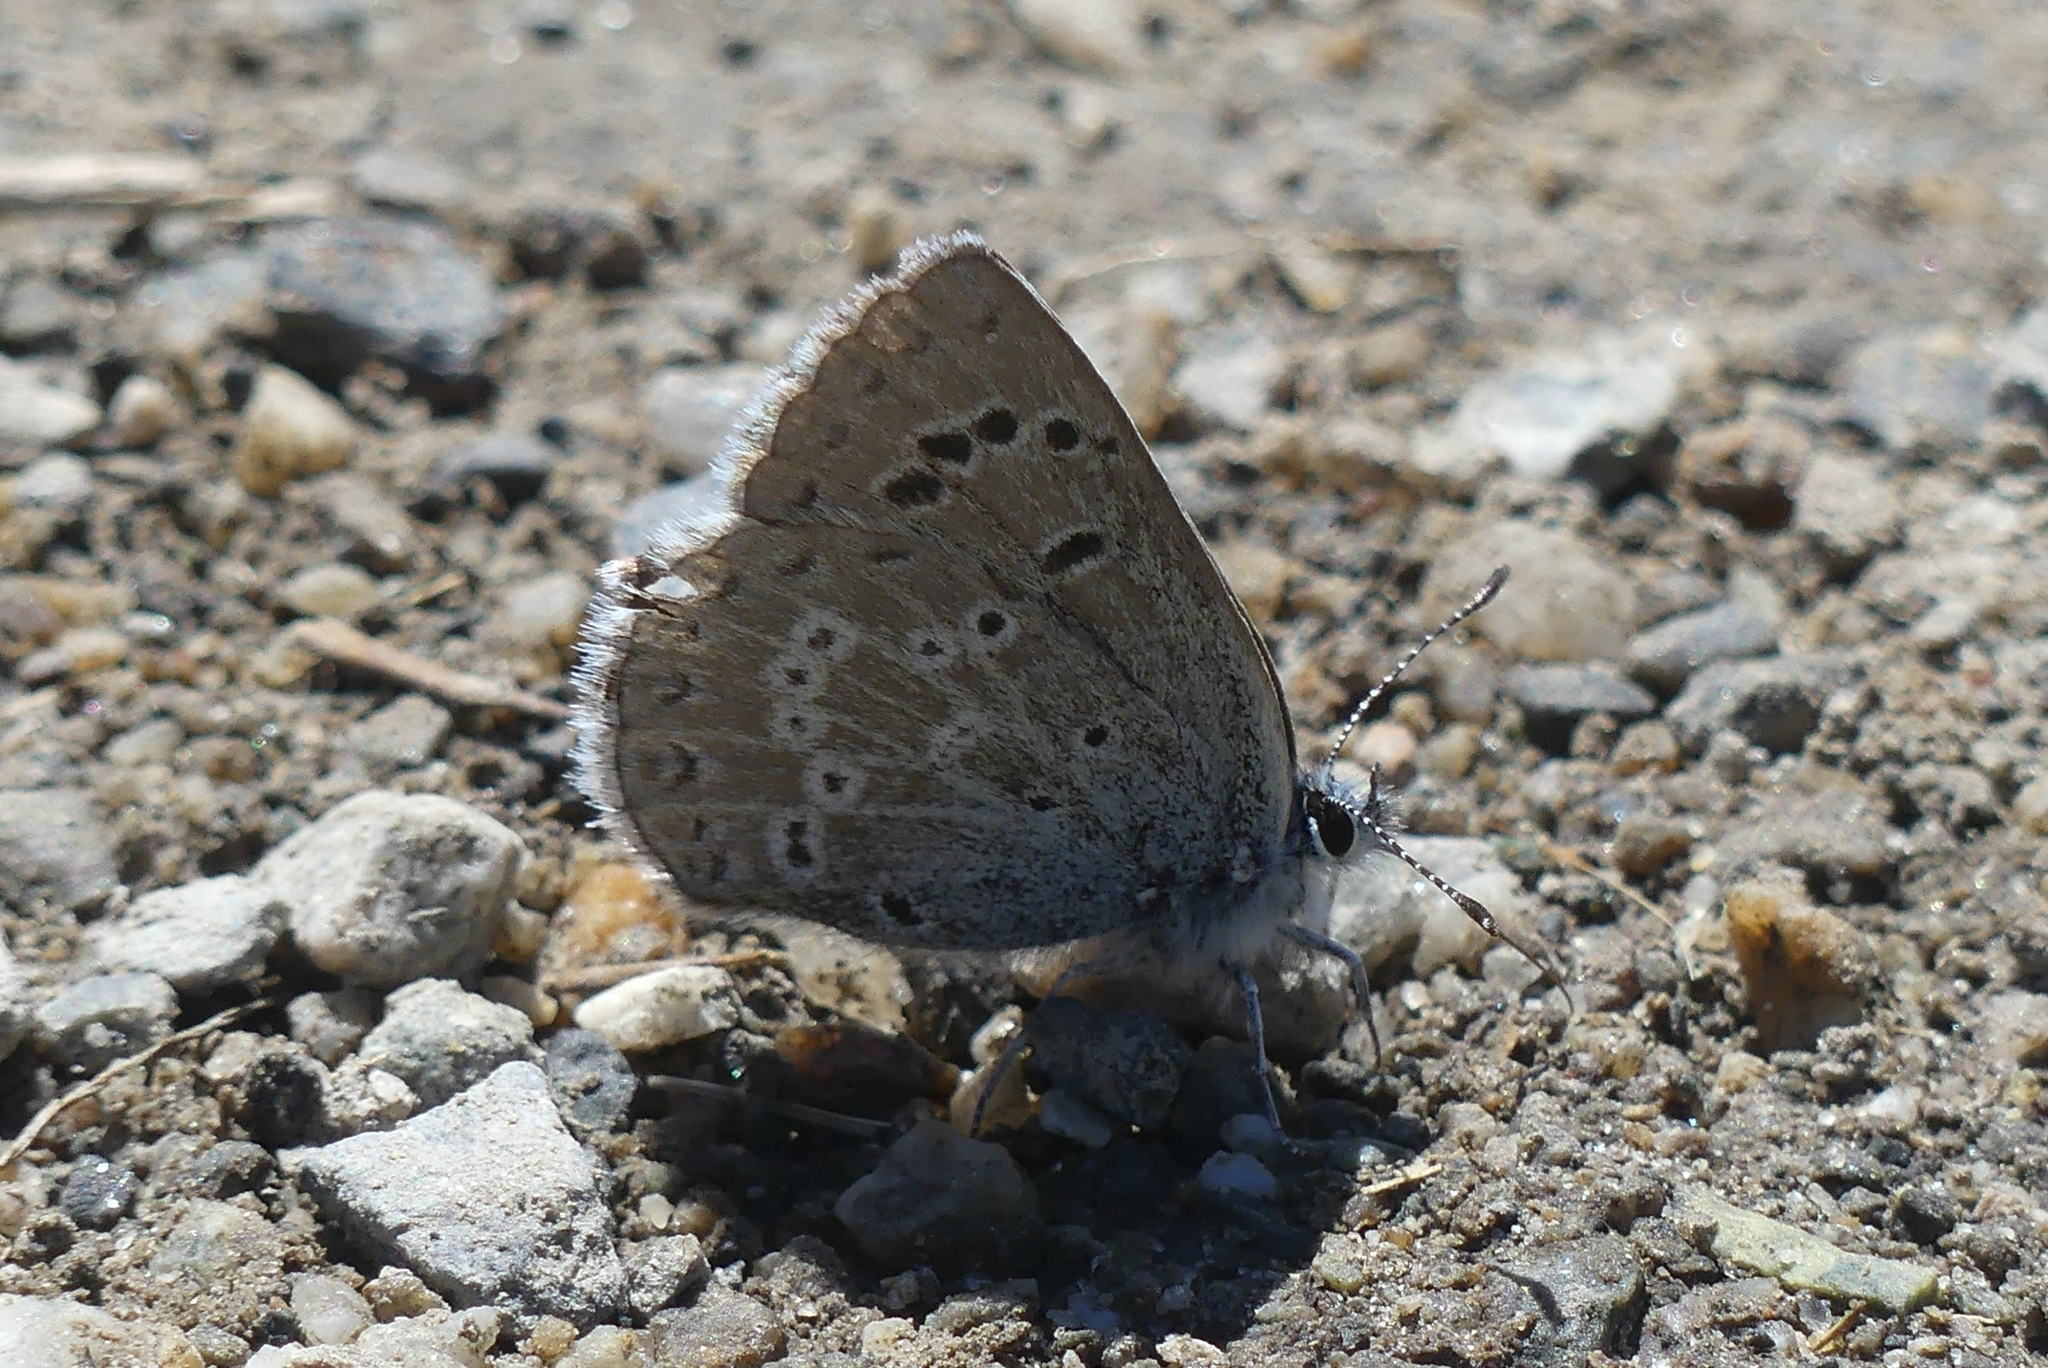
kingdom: Animalia
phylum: Arthropoda
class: Insecta
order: Lepidoptera
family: Lycaenidae
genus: Icaricia
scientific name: Icaricia icarioides
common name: Boisduval's blue
